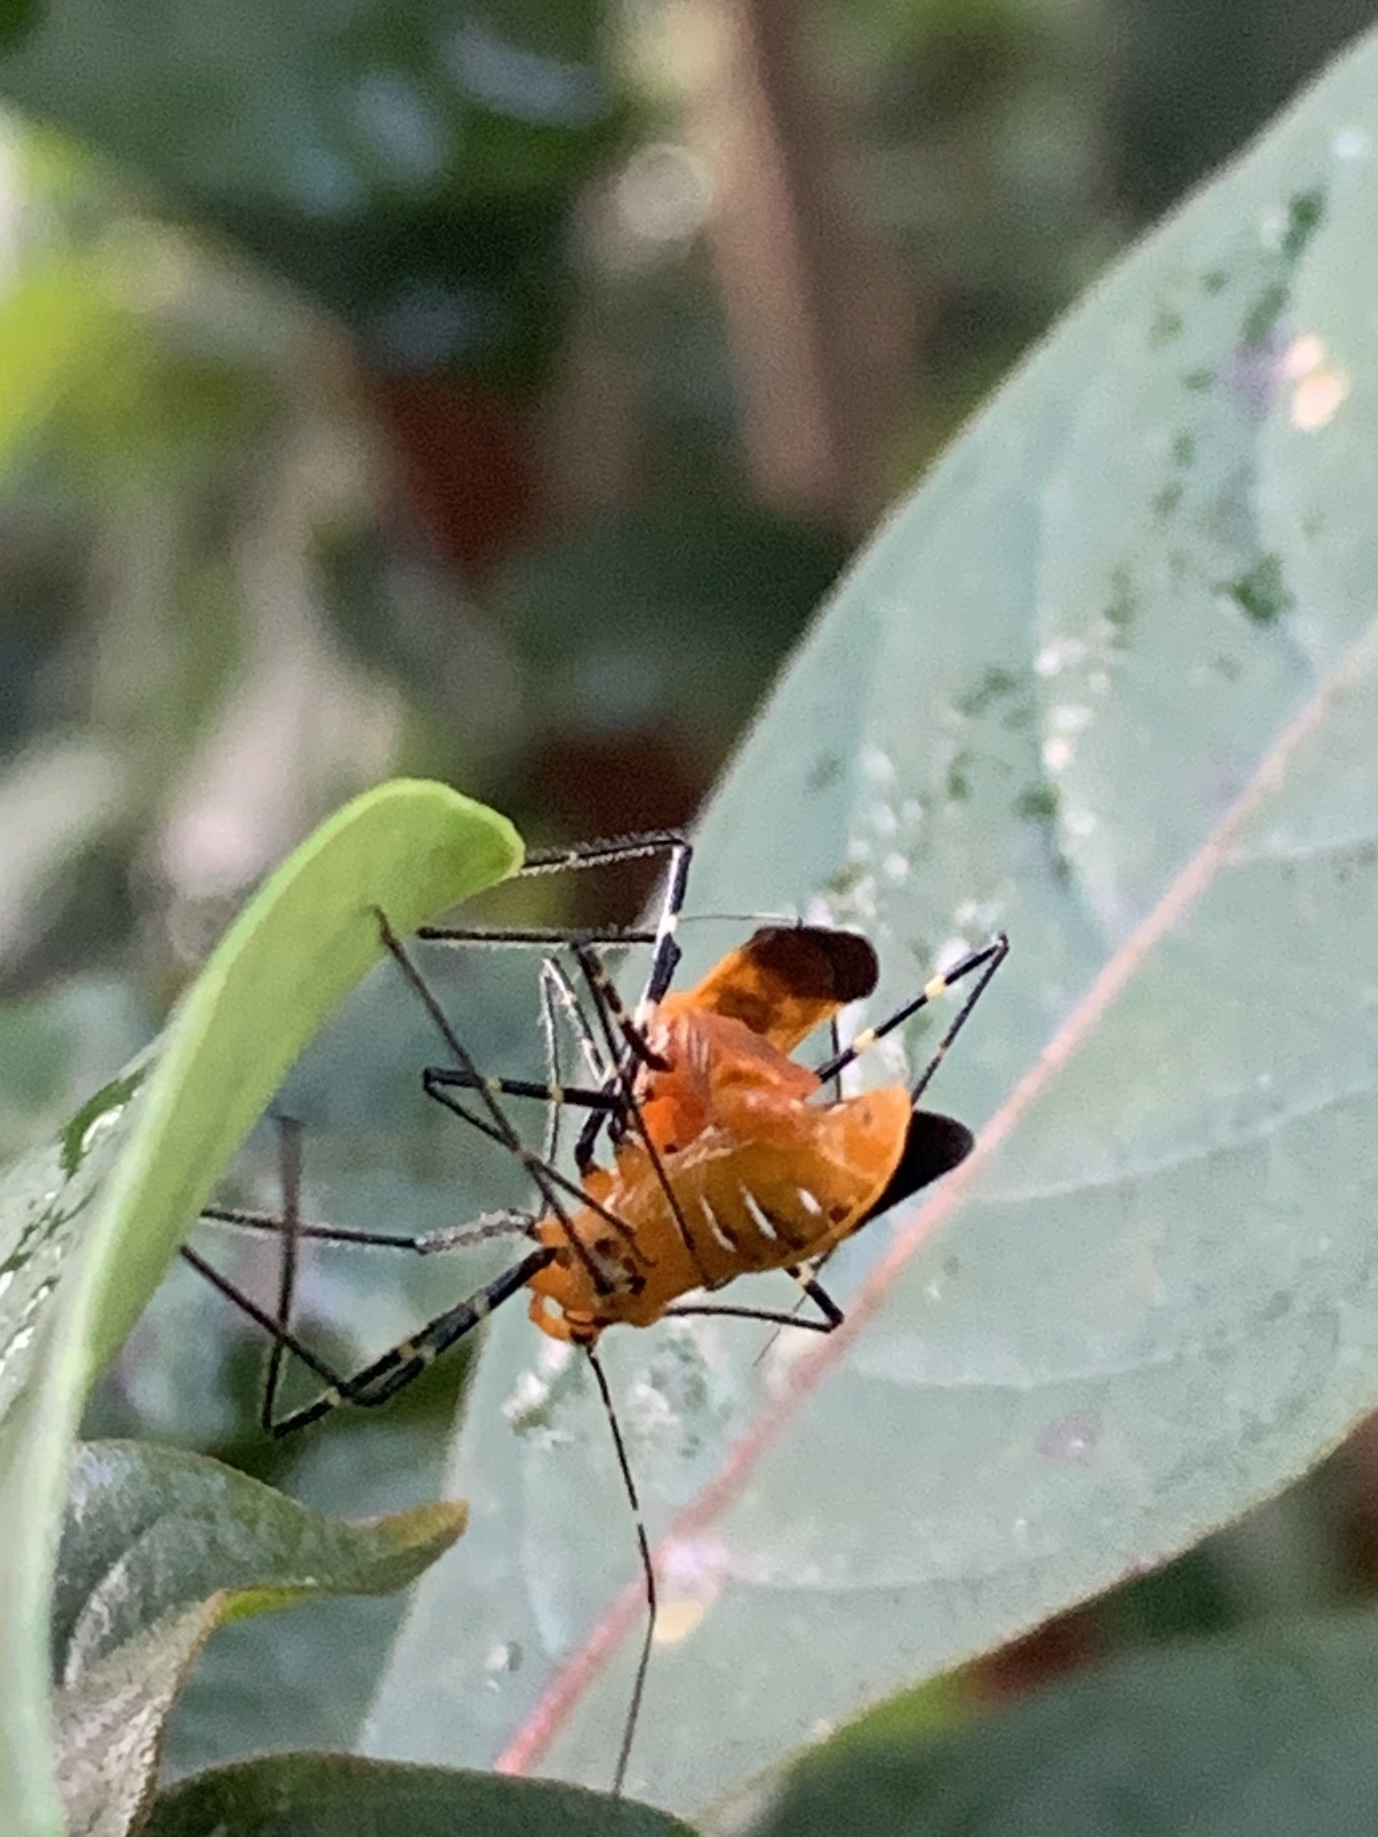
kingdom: Animalia
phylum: Arthropoda
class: Insecta
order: Hemiptera
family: Reduviidae
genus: Zelus
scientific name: Zelus longipes
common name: Milkweed assassin bug
